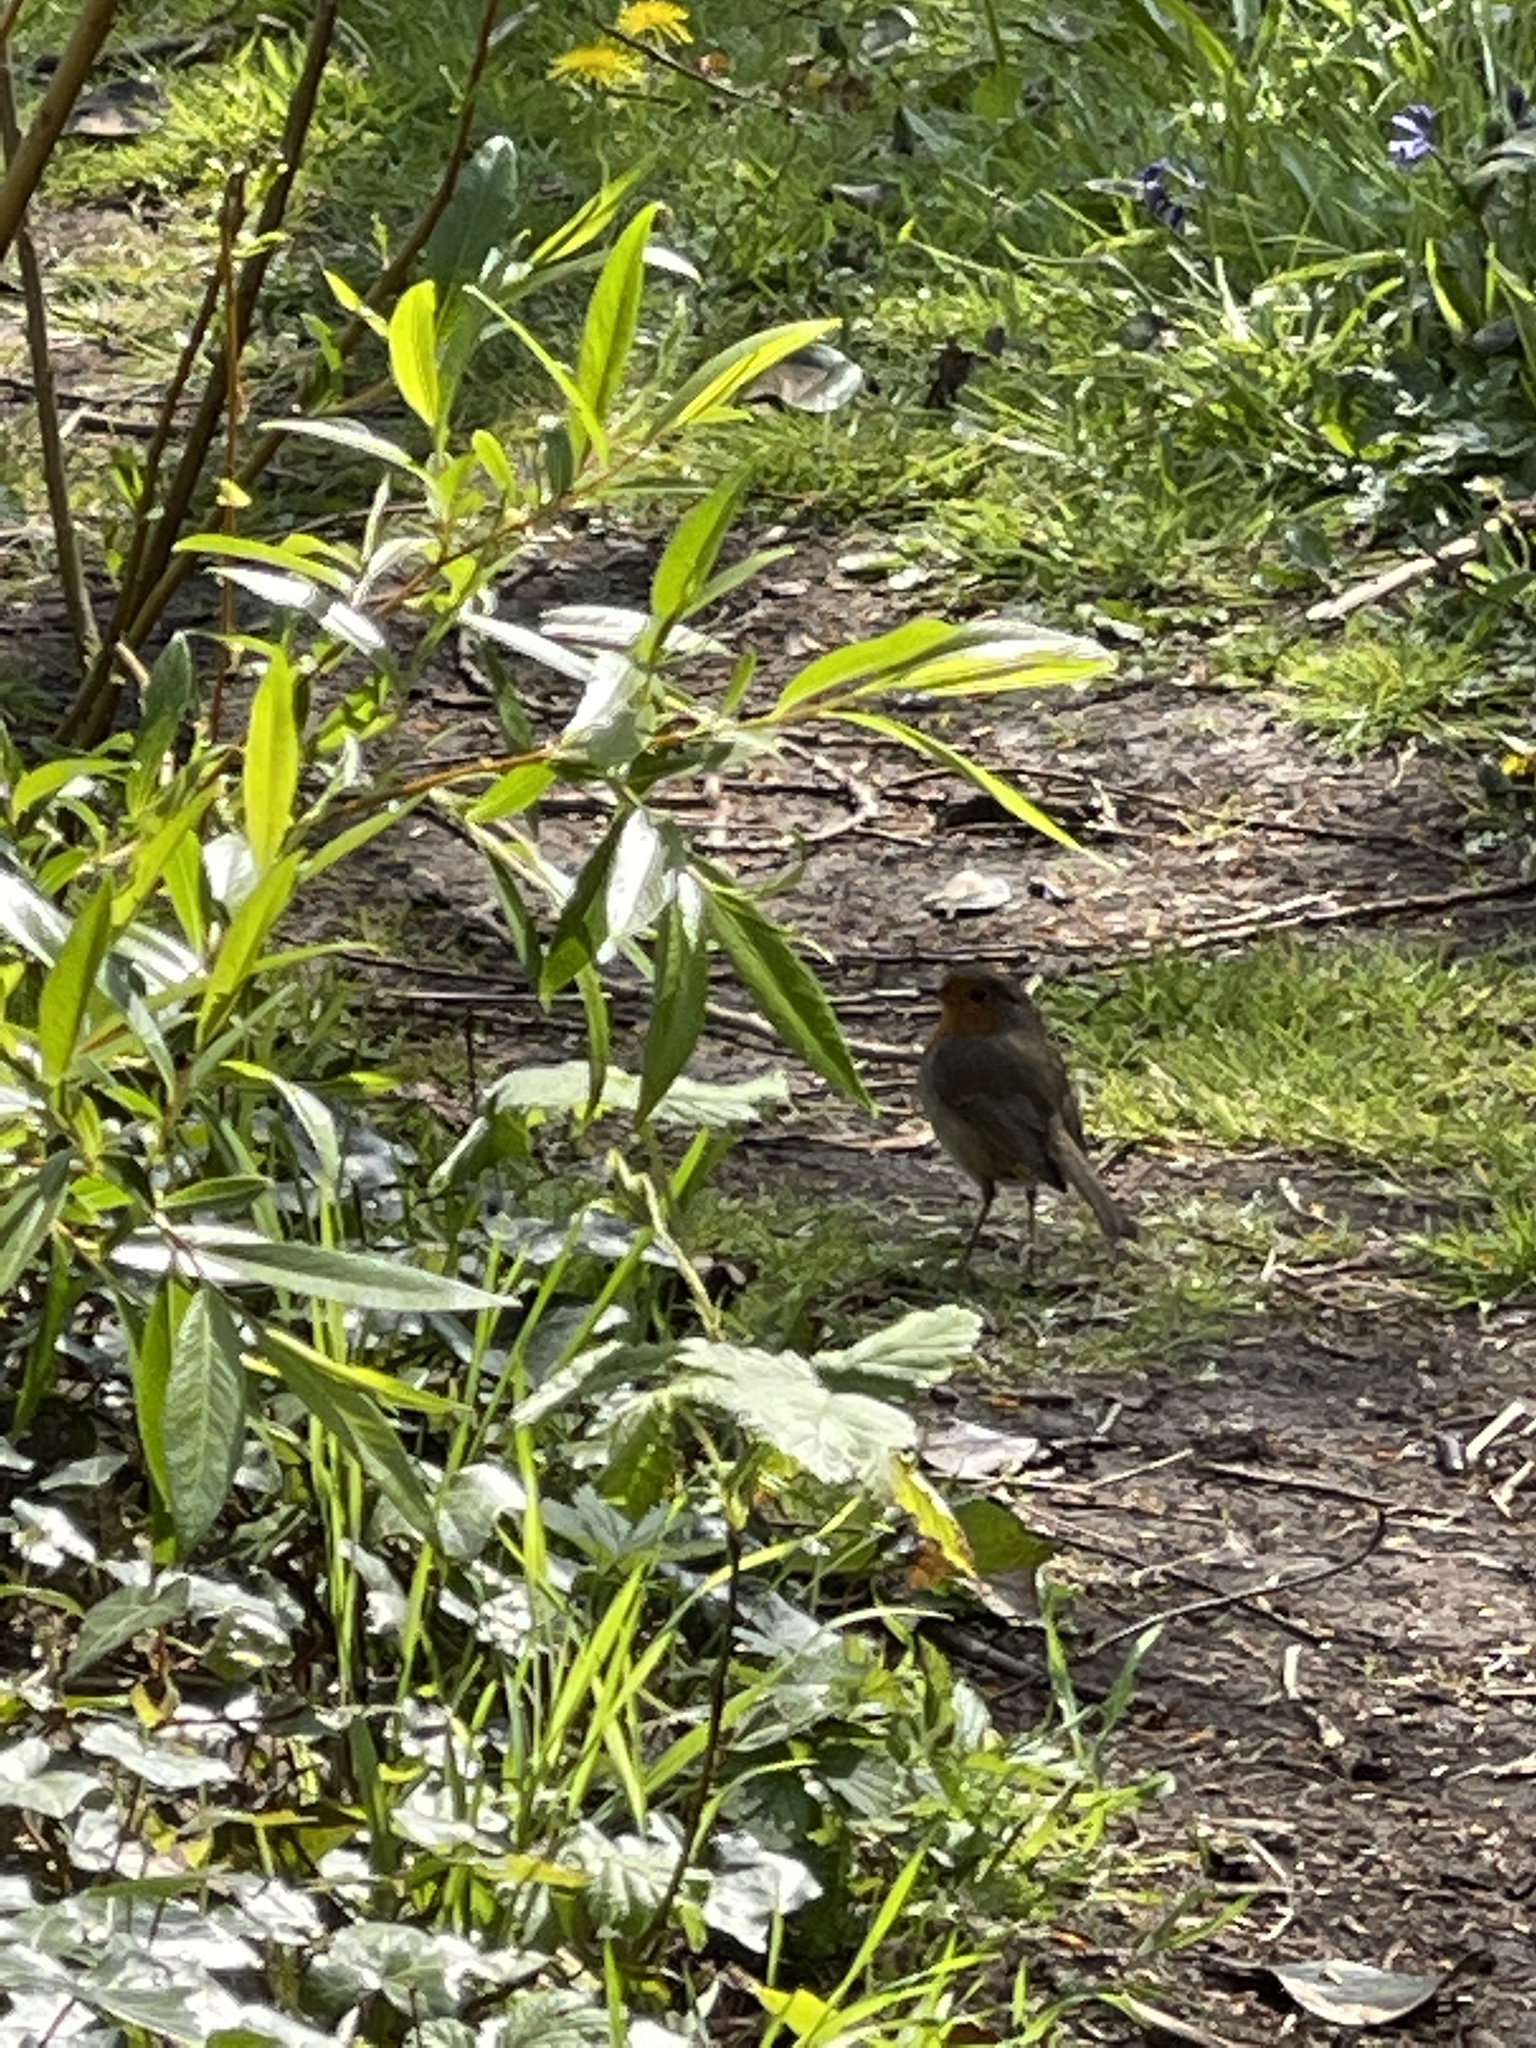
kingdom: Animalia
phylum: Chordata
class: Aves
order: Passeriformes
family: Muscicapidae
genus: Erithacus
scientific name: Erithacus rubecula
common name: European robin
